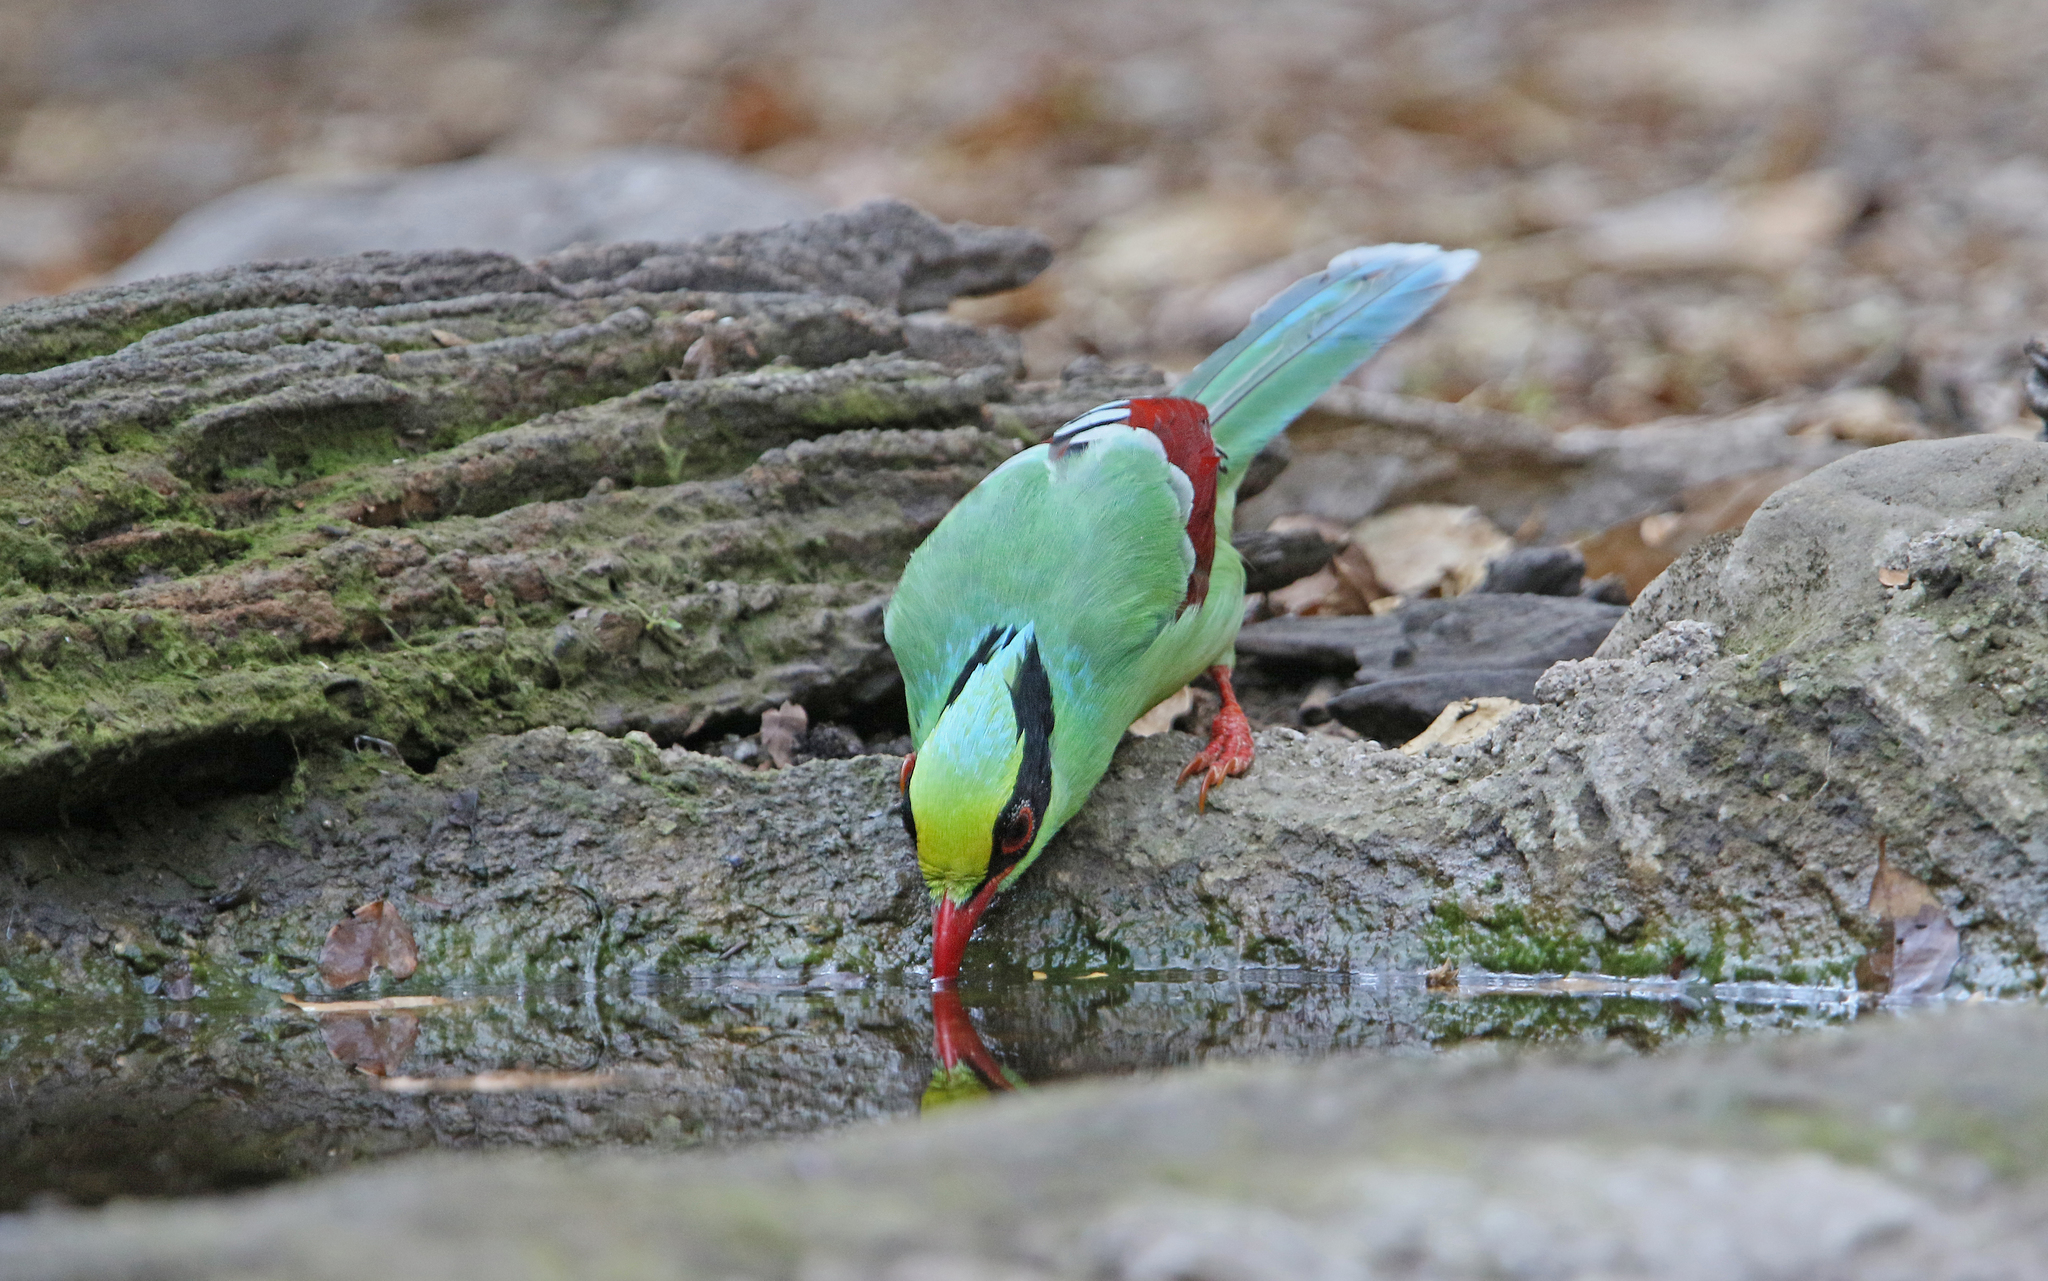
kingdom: Animalia
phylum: Chordata
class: Aves
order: Passeriformes
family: Corvidae
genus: Cissa
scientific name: Cissa chinensis
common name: Common green magpie
